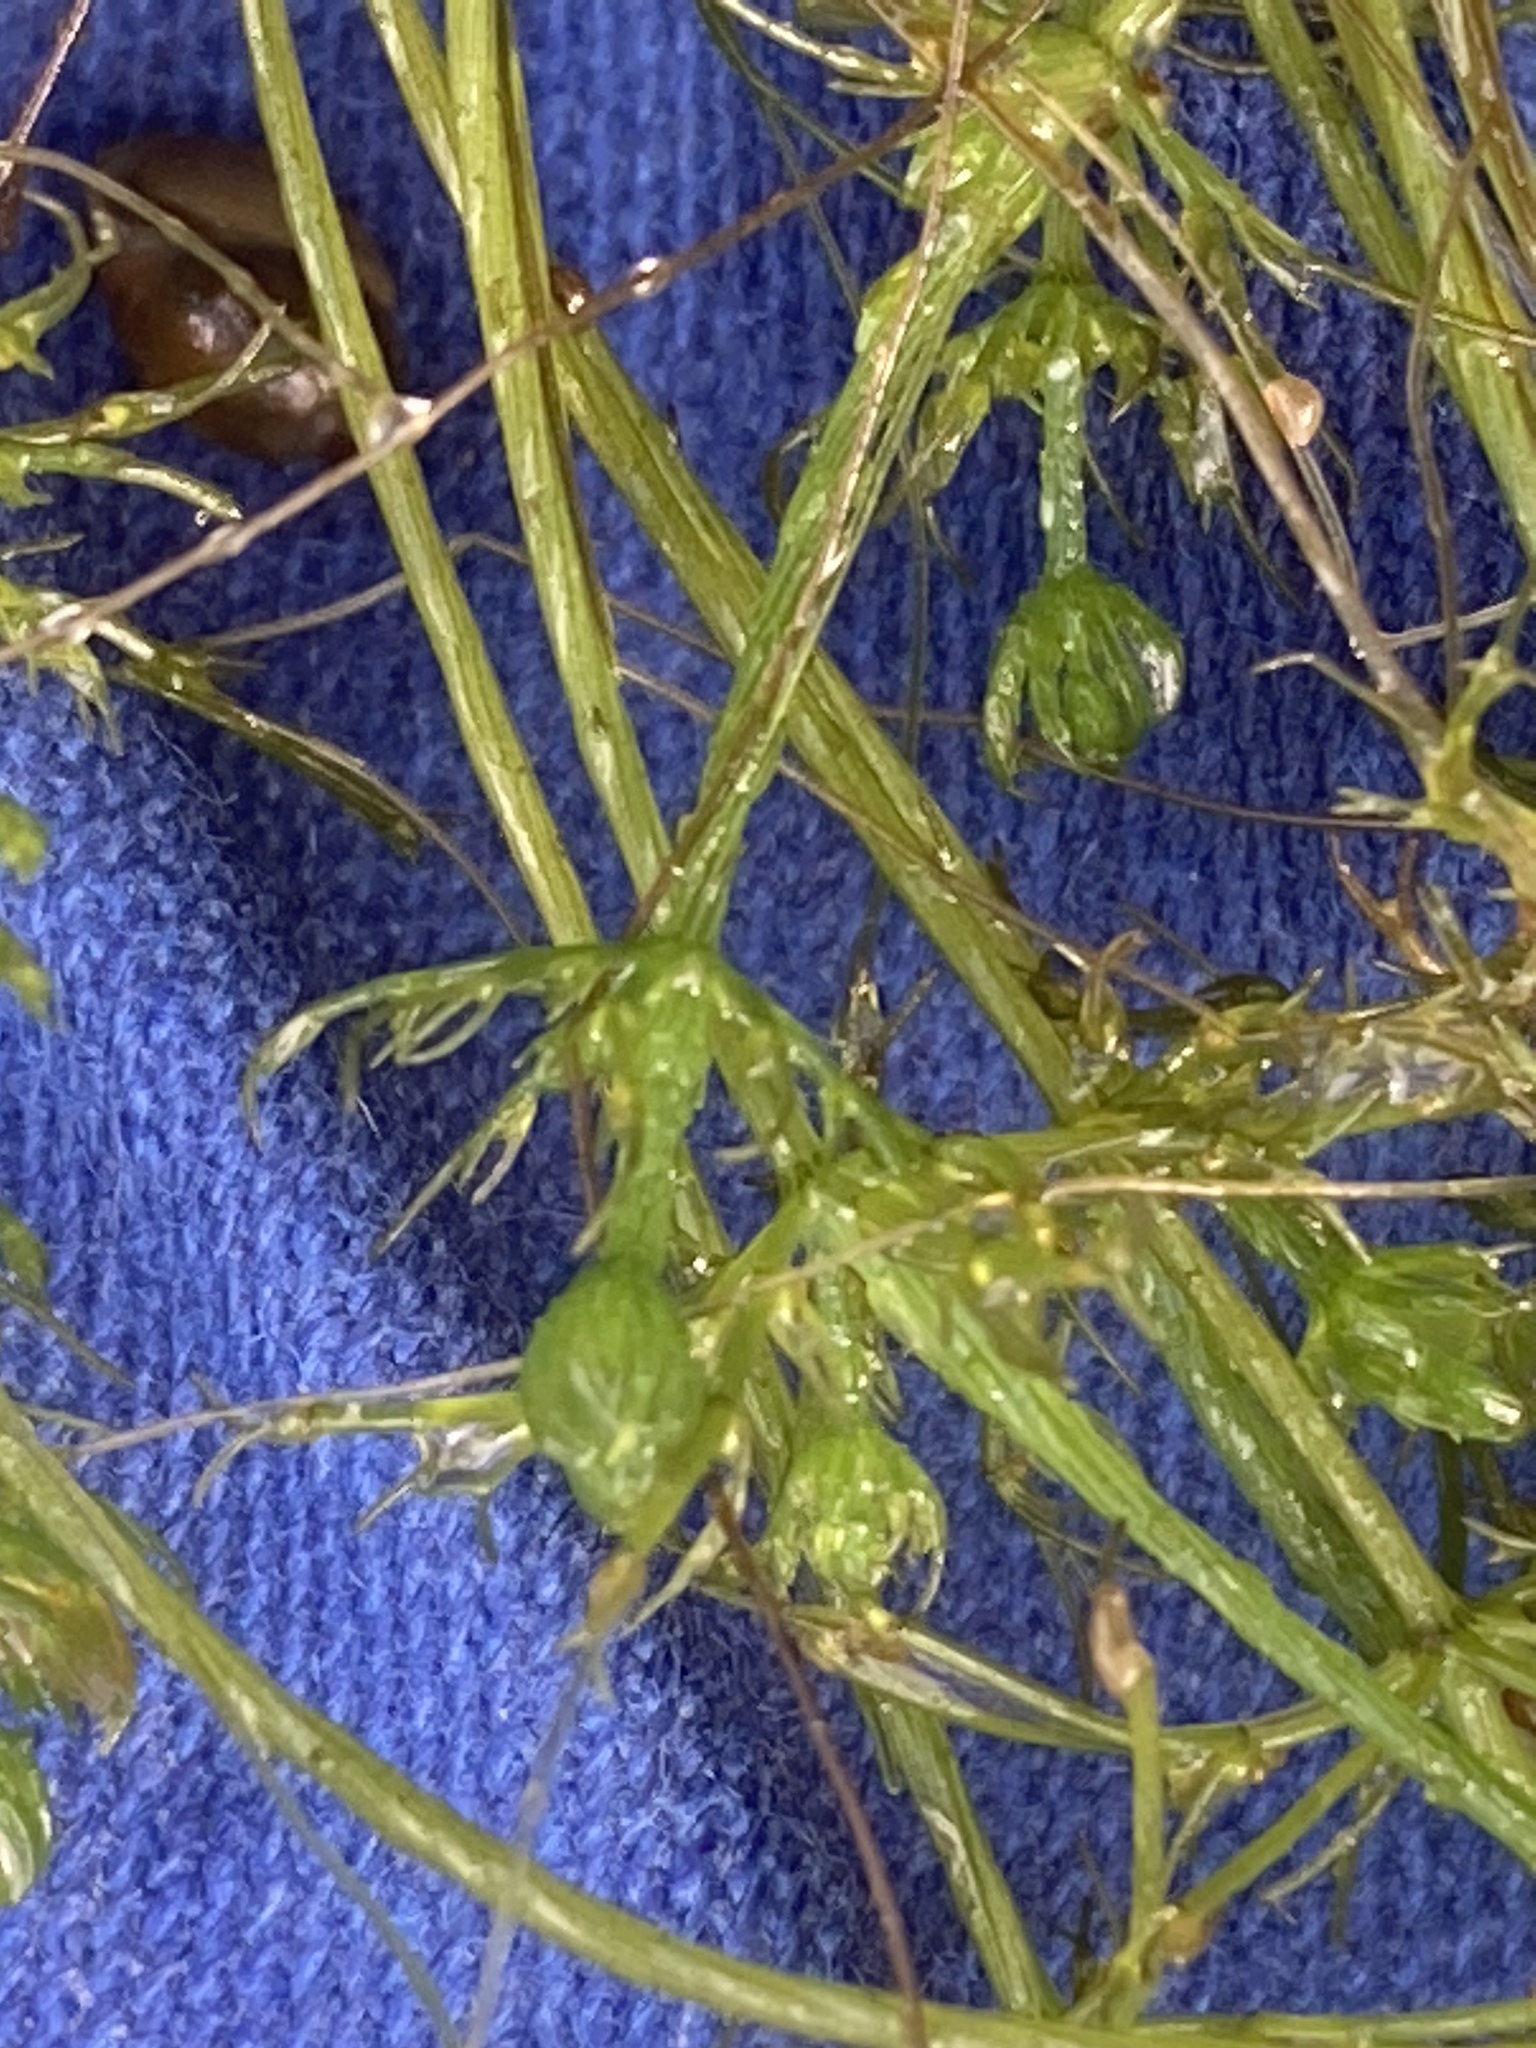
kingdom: Plantae
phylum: Charophyta
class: Charophyceae
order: Charales
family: Characeae
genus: Chara
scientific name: Chara vulgaris
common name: Common stonewort
